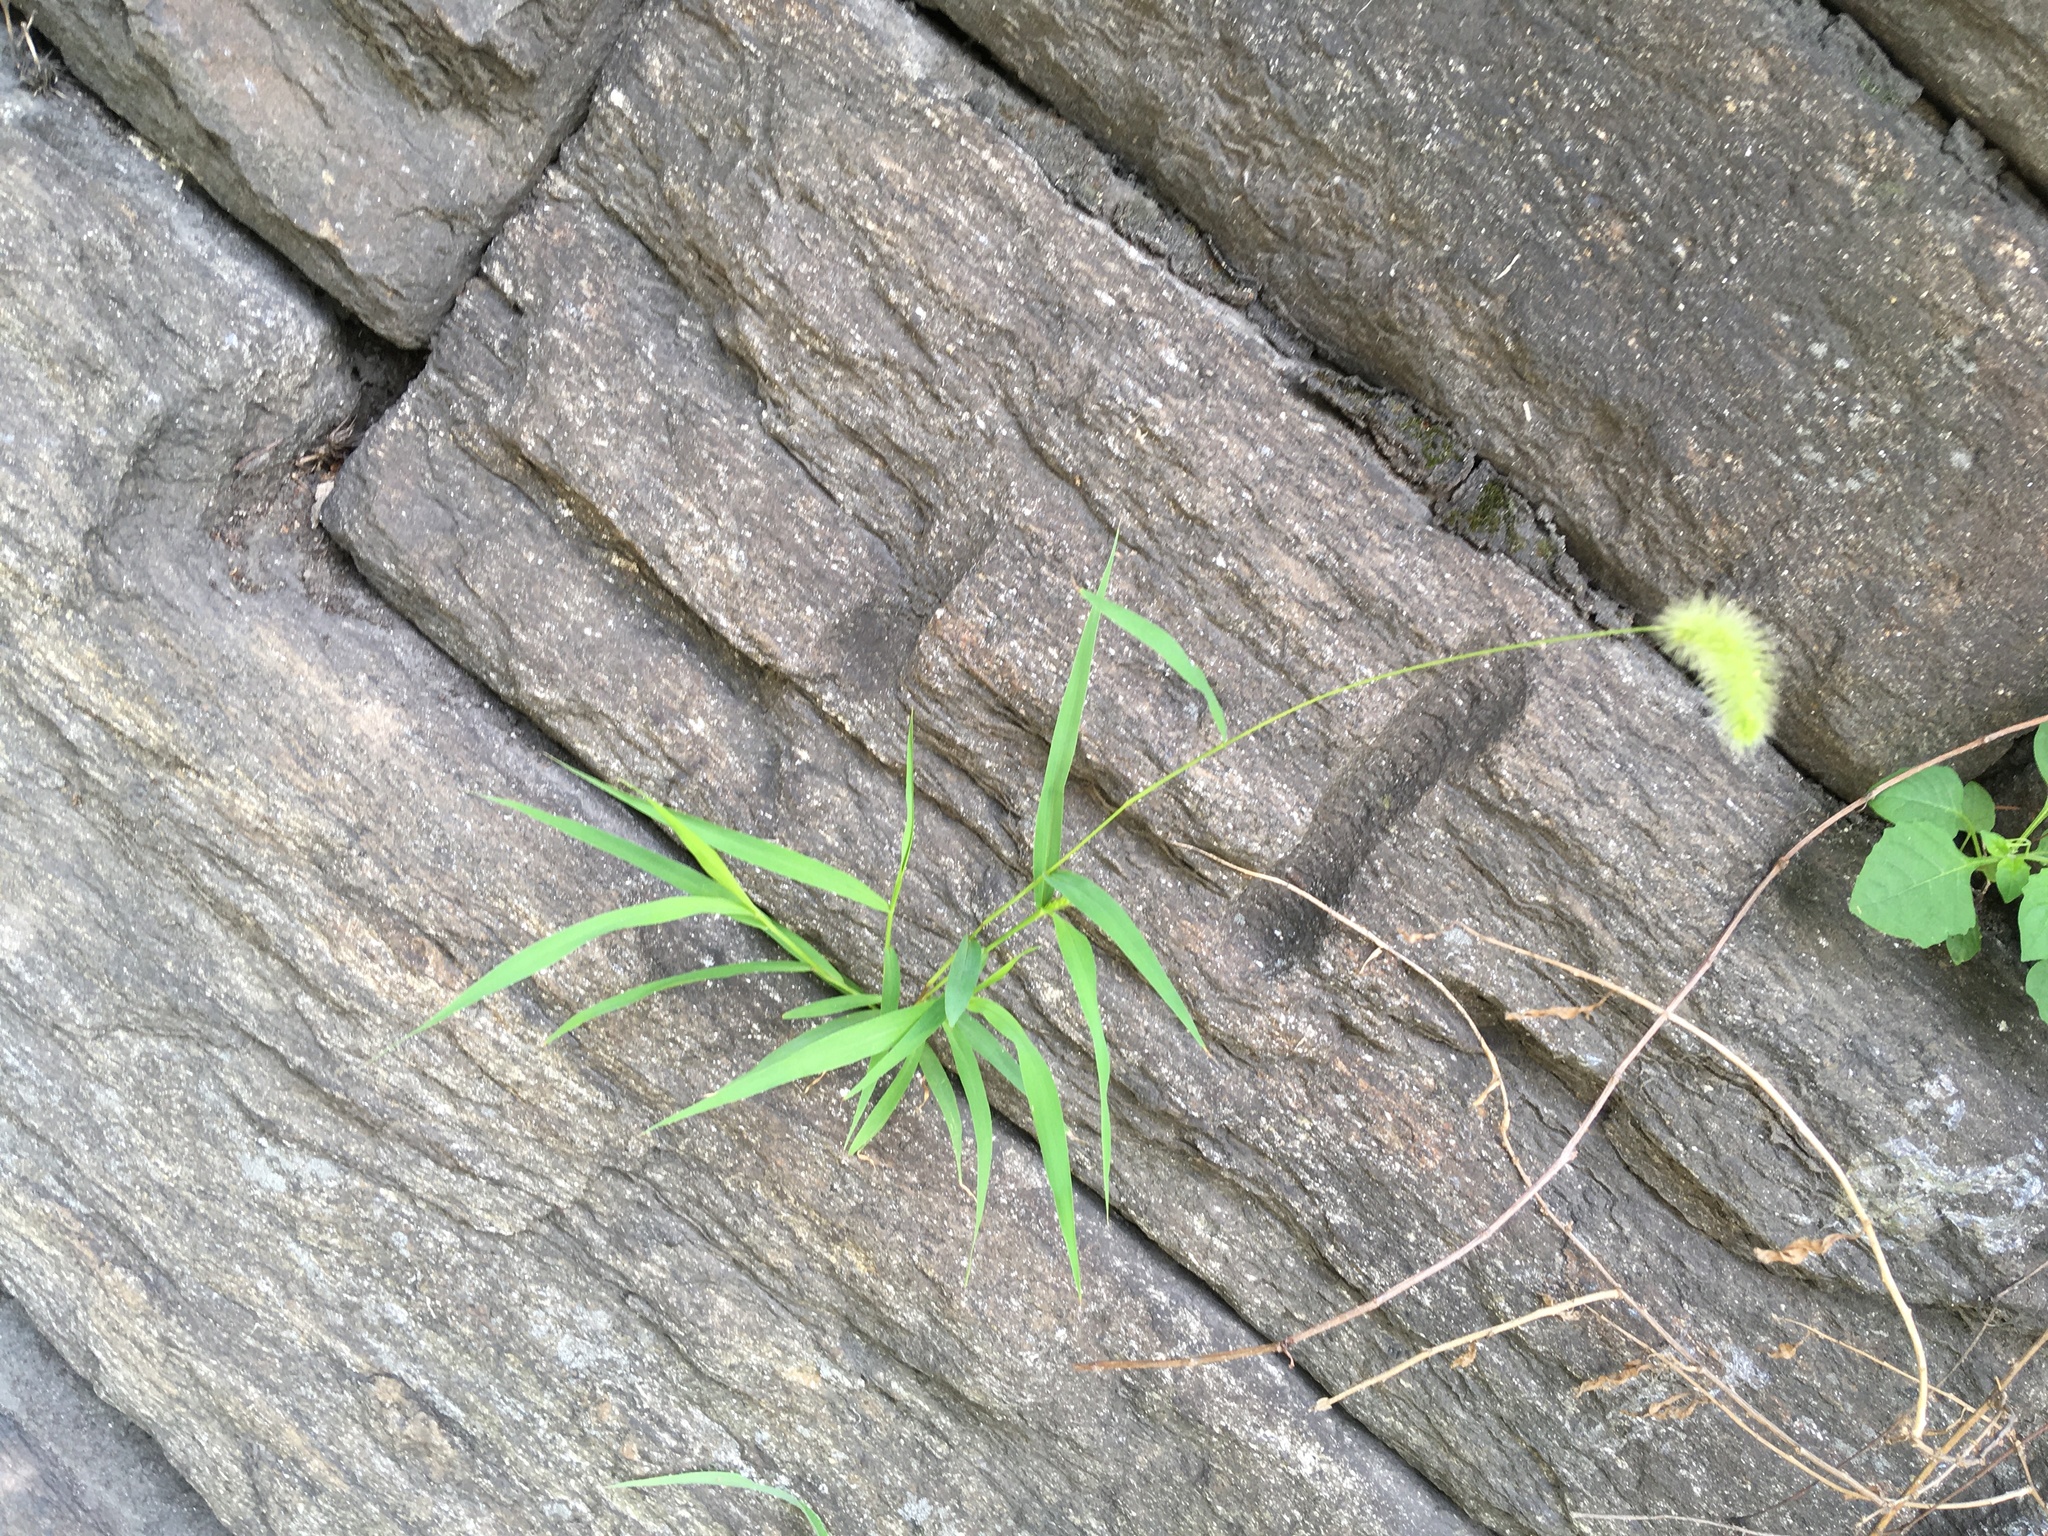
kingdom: Plantae
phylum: Tracheophyta
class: Liliopsida
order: Poales
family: Poaceae
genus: Setaria
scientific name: Setaria viridis
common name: Green bristlegrass
